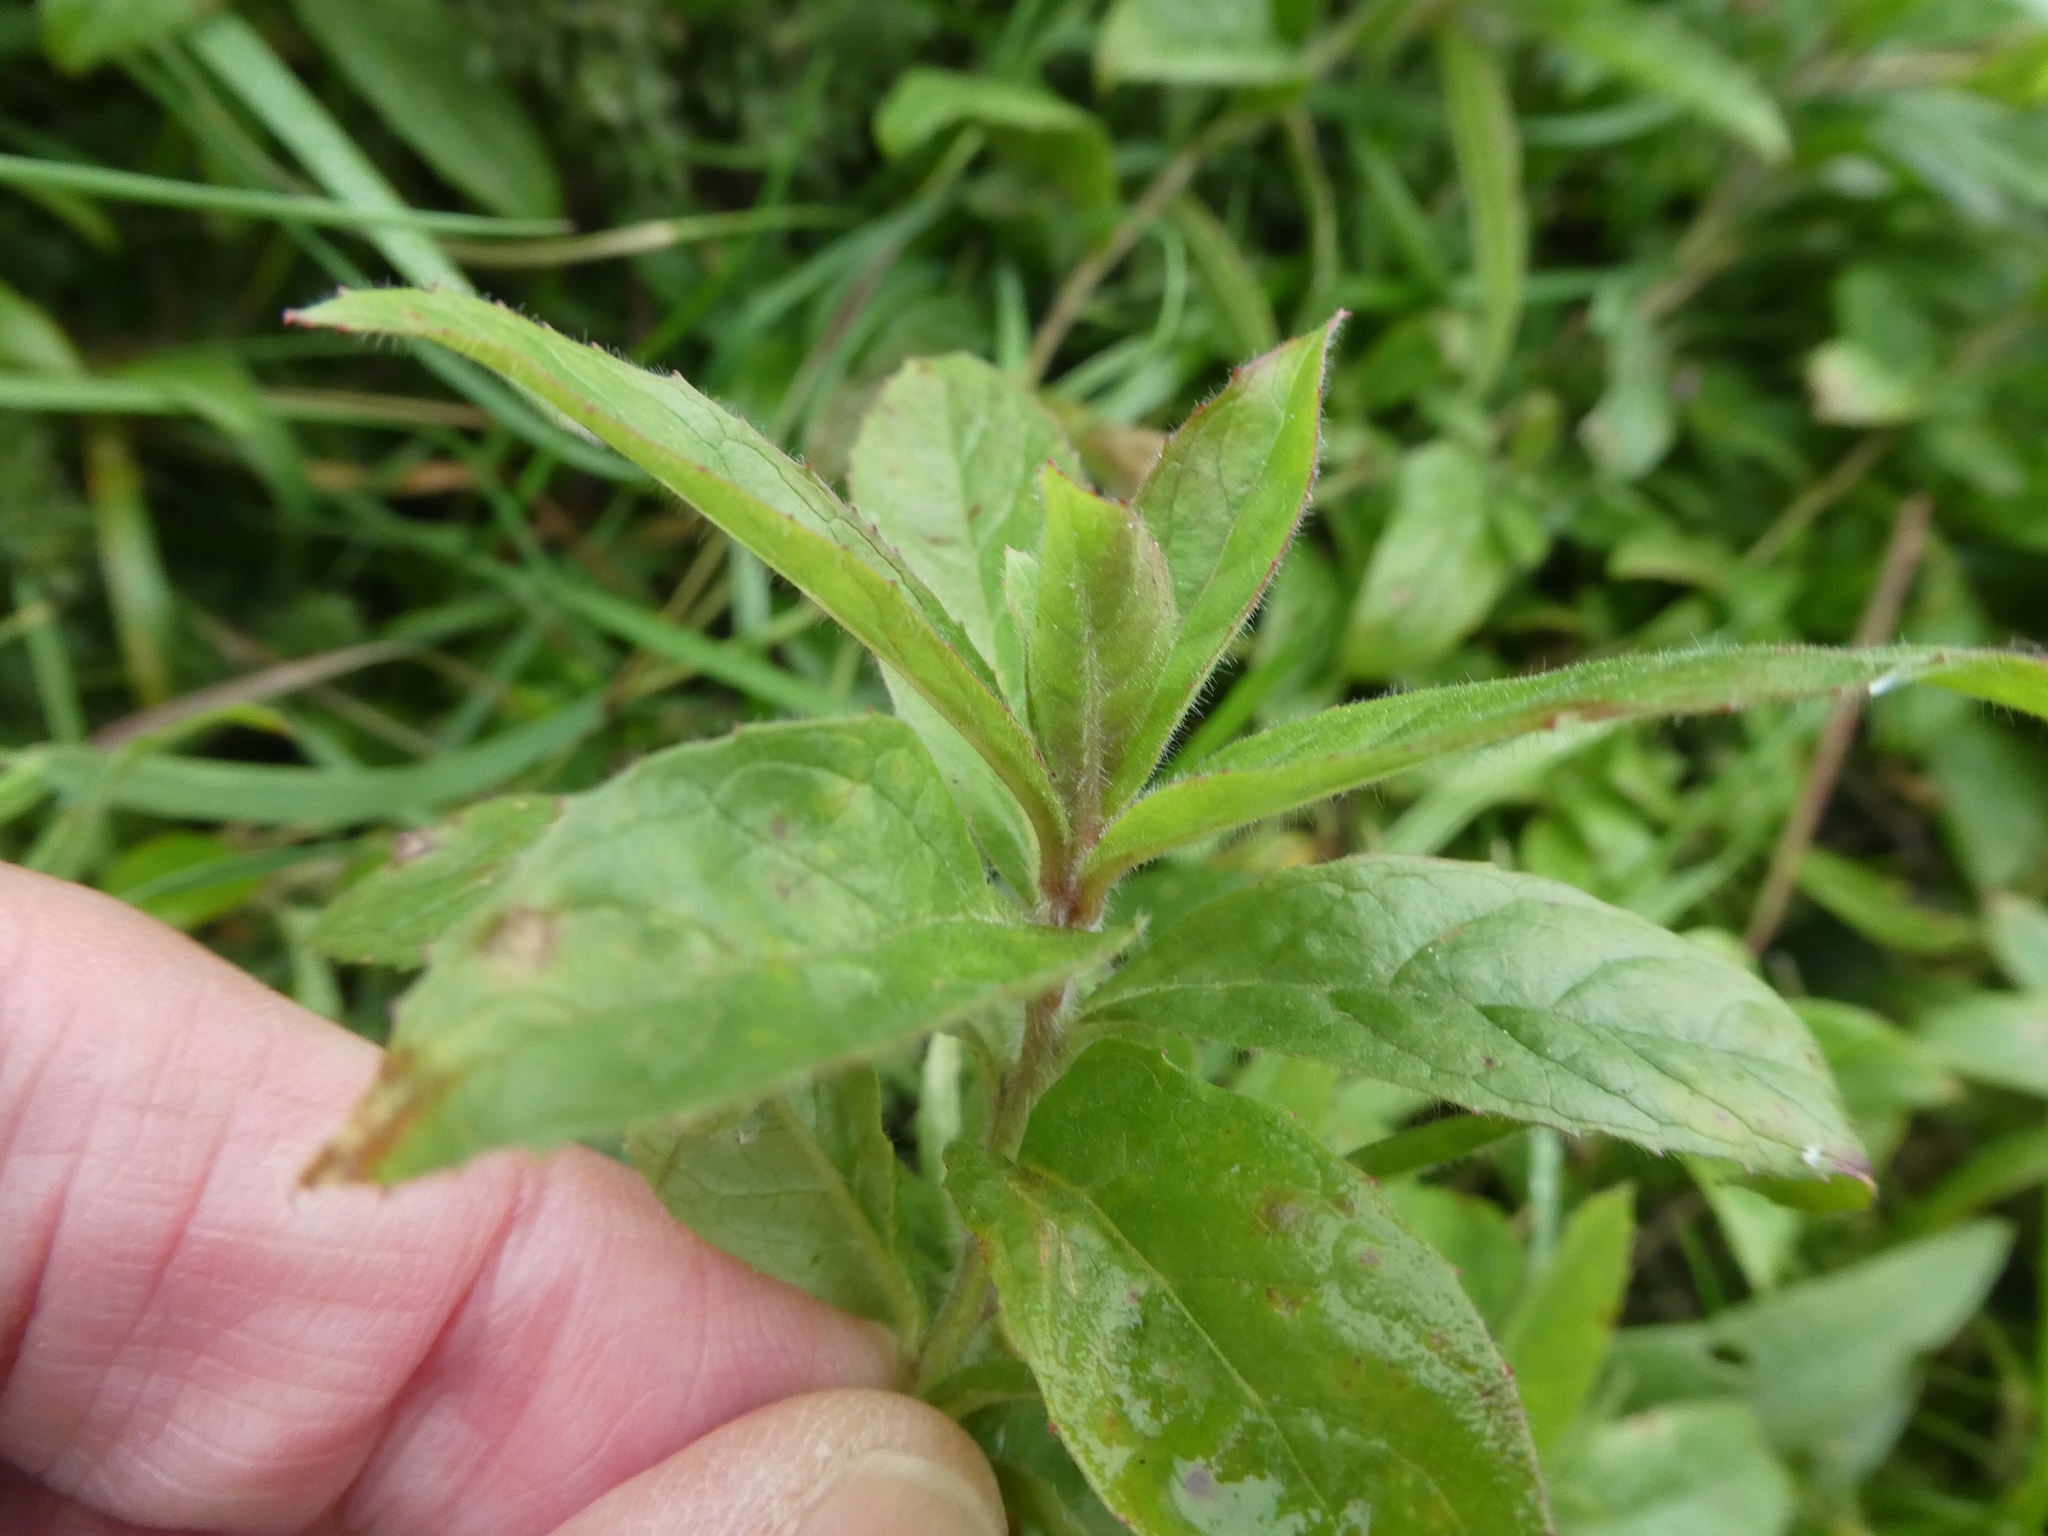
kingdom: Plantae
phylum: Tracheophyta
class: Magnoliopsida
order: Myrtales
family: Onagraceae
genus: Epilobium
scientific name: Epilobium hirsutum
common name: Great willowherb
